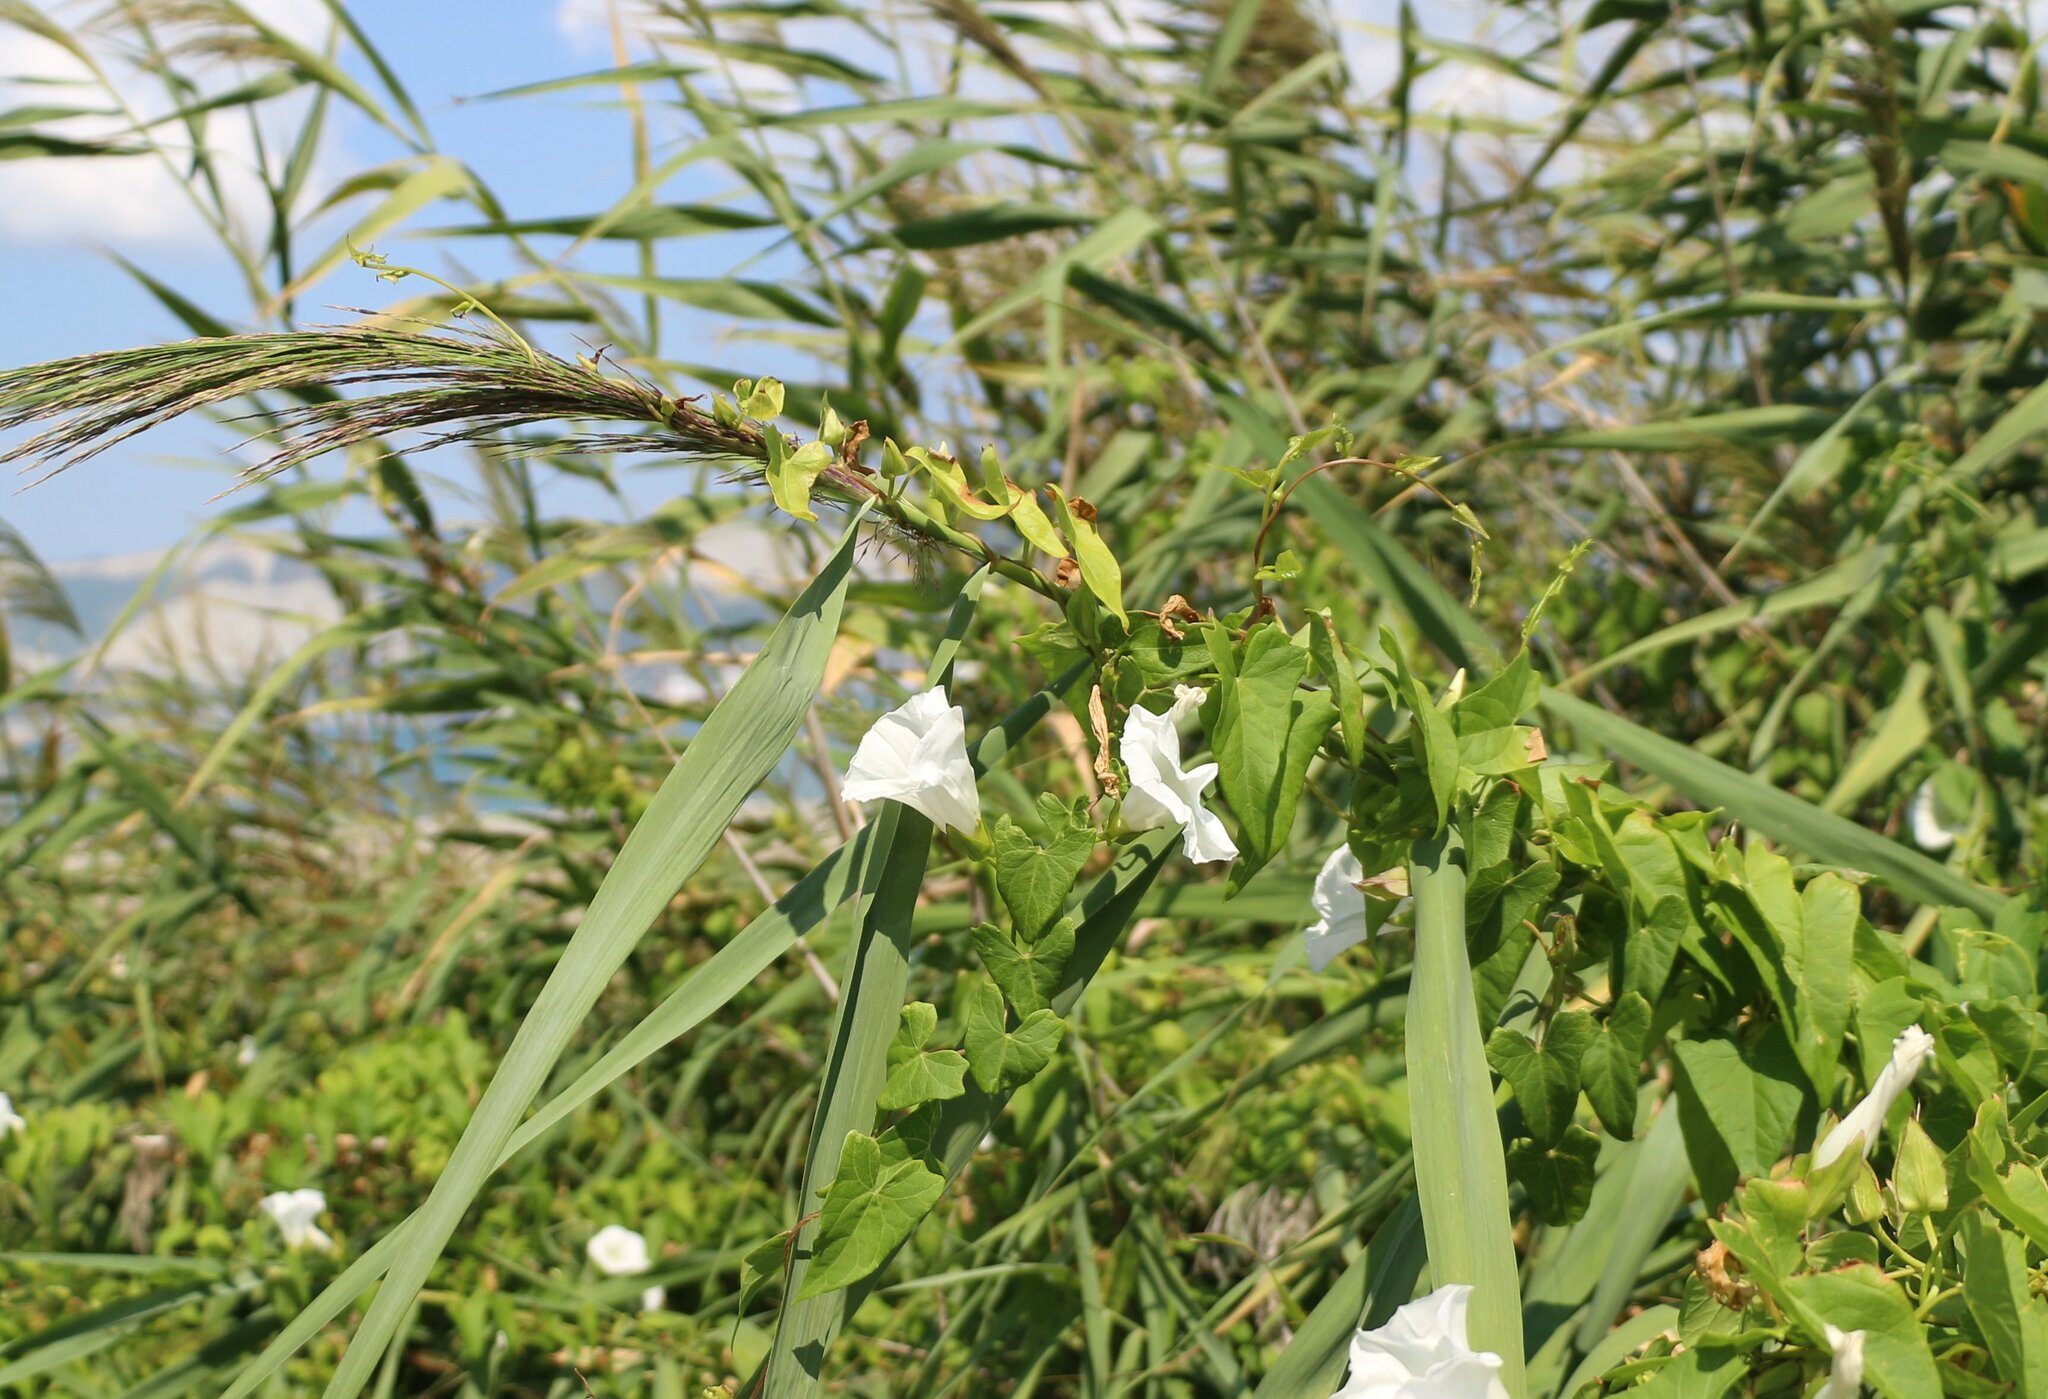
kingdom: Plantae
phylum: Tracheophyta
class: Magnoliopsida
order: Solanales
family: Convolvulaceae
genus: Calystegia
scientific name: Calystegia sepium
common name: Hedge bindweed
